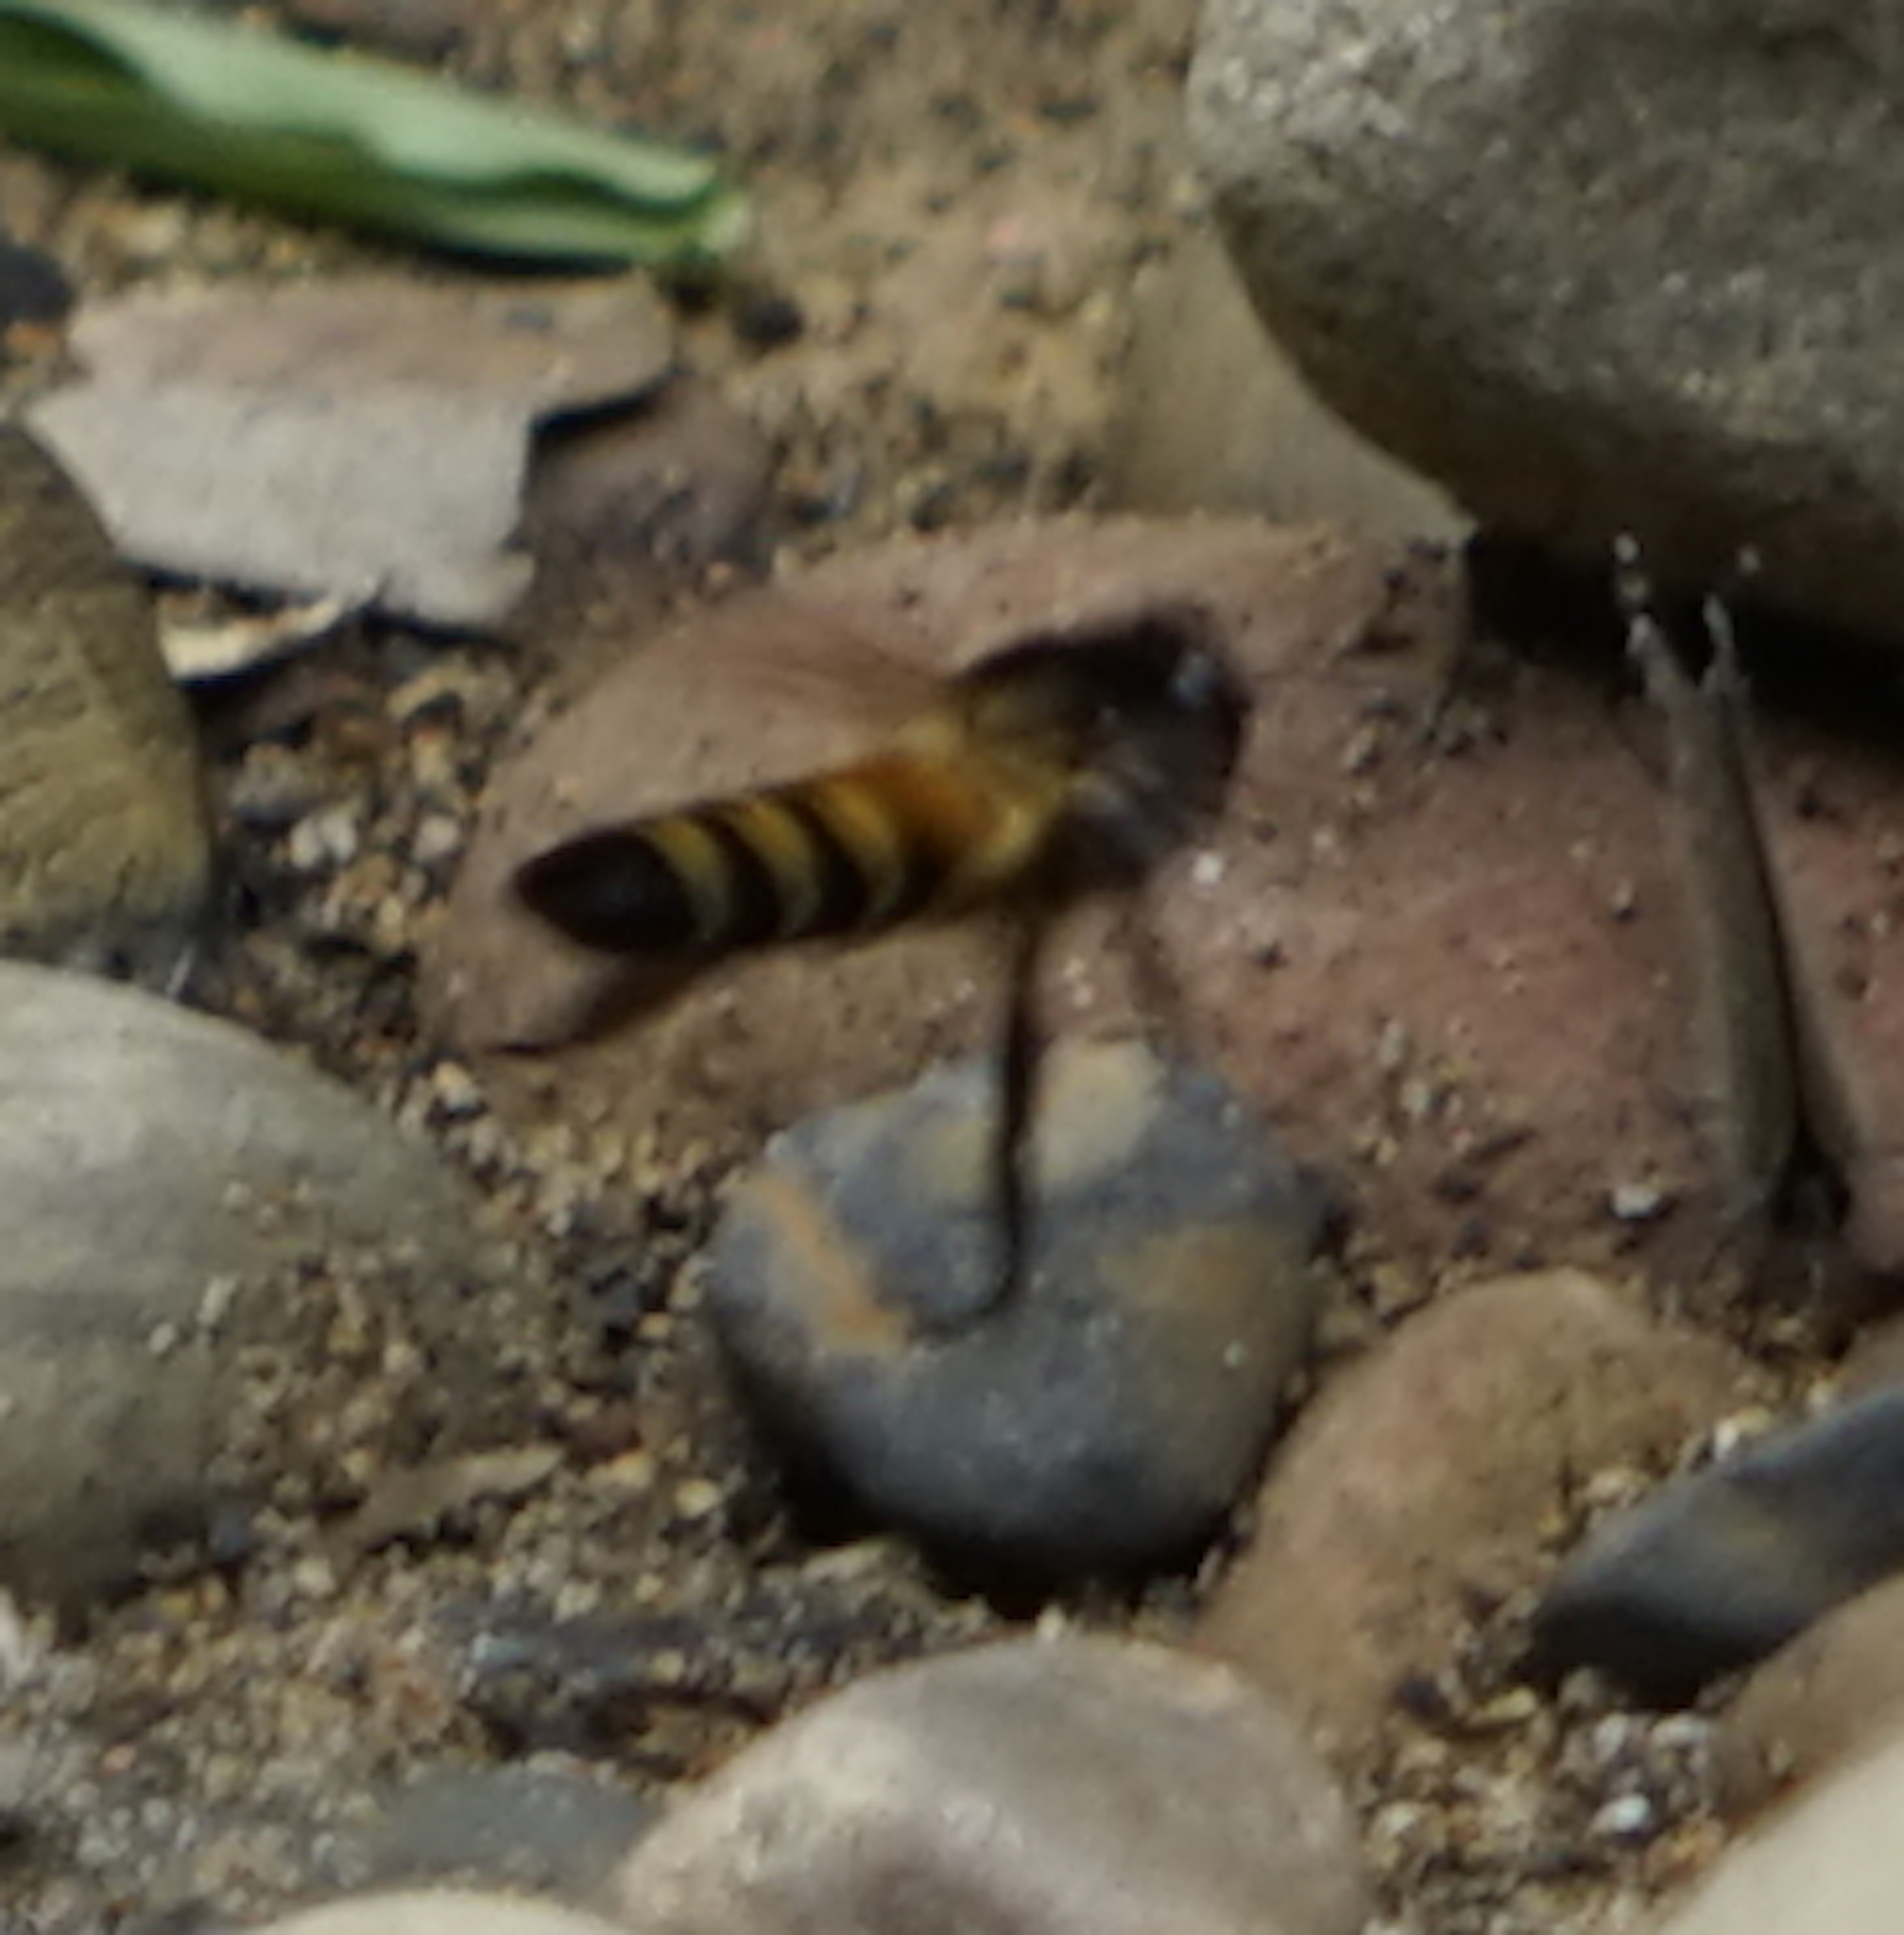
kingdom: Animalia
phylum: Arthropoda
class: Insecta
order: Hymenoptera
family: Apidae
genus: Apis
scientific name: Apis dorsata
